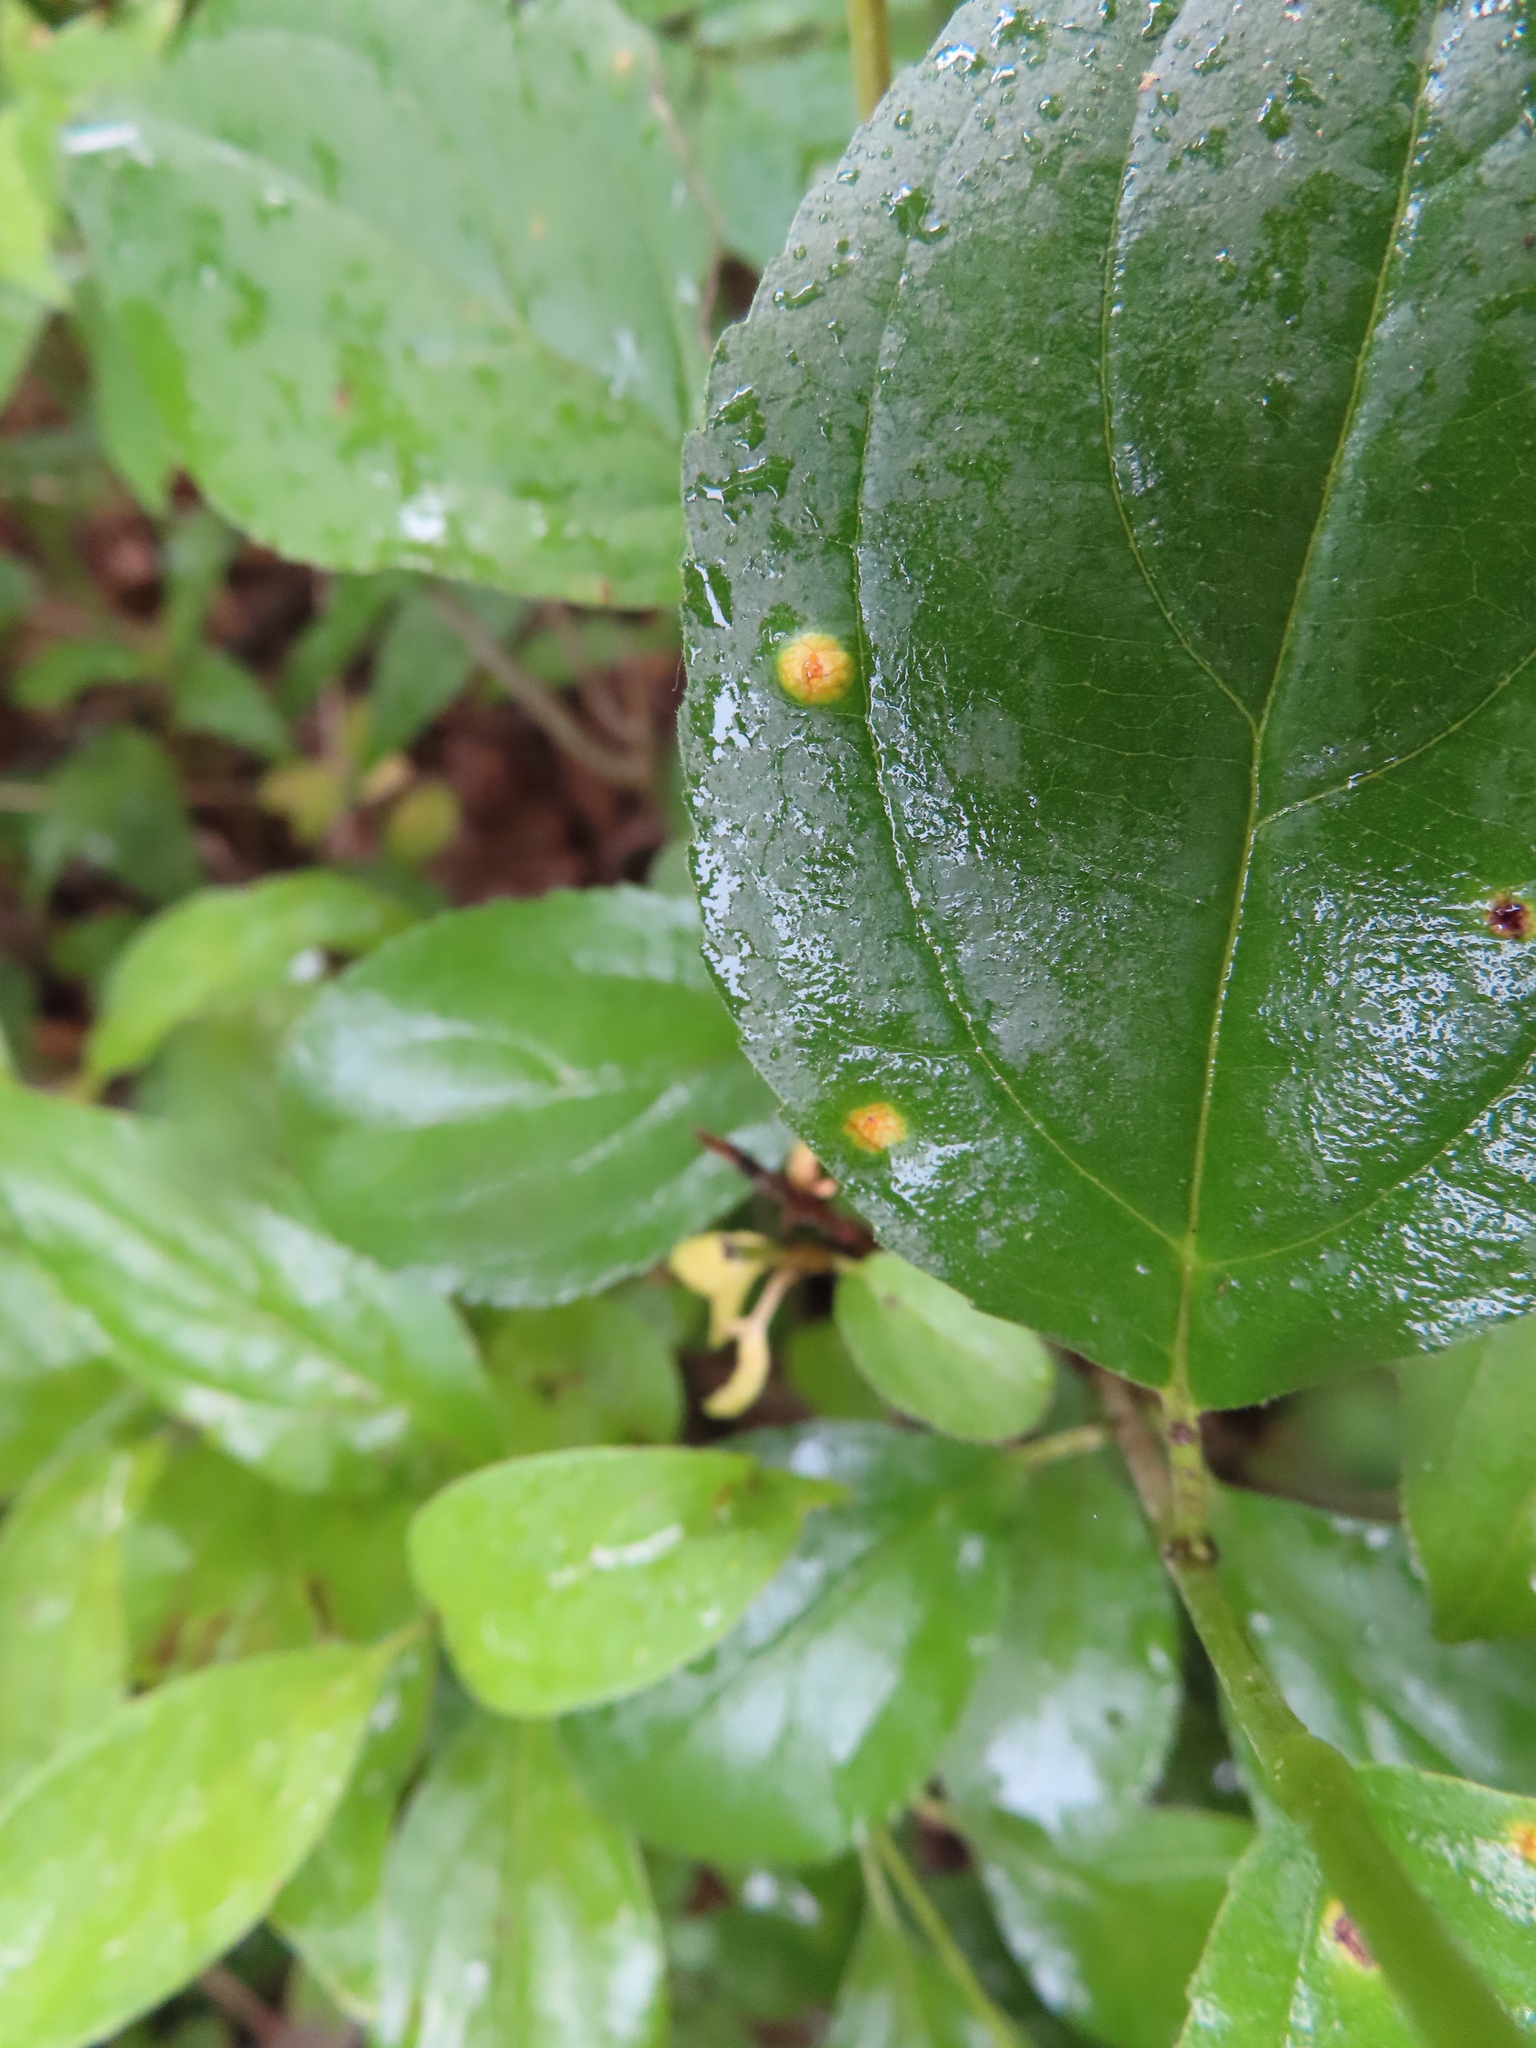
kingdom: Plantae
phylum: Tracheophyta
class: Magnoliopsida
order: Rosales
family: Rhamnaceae
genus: Rhamnus
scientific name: Rhamnus cathartica
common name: Common buckthorn
